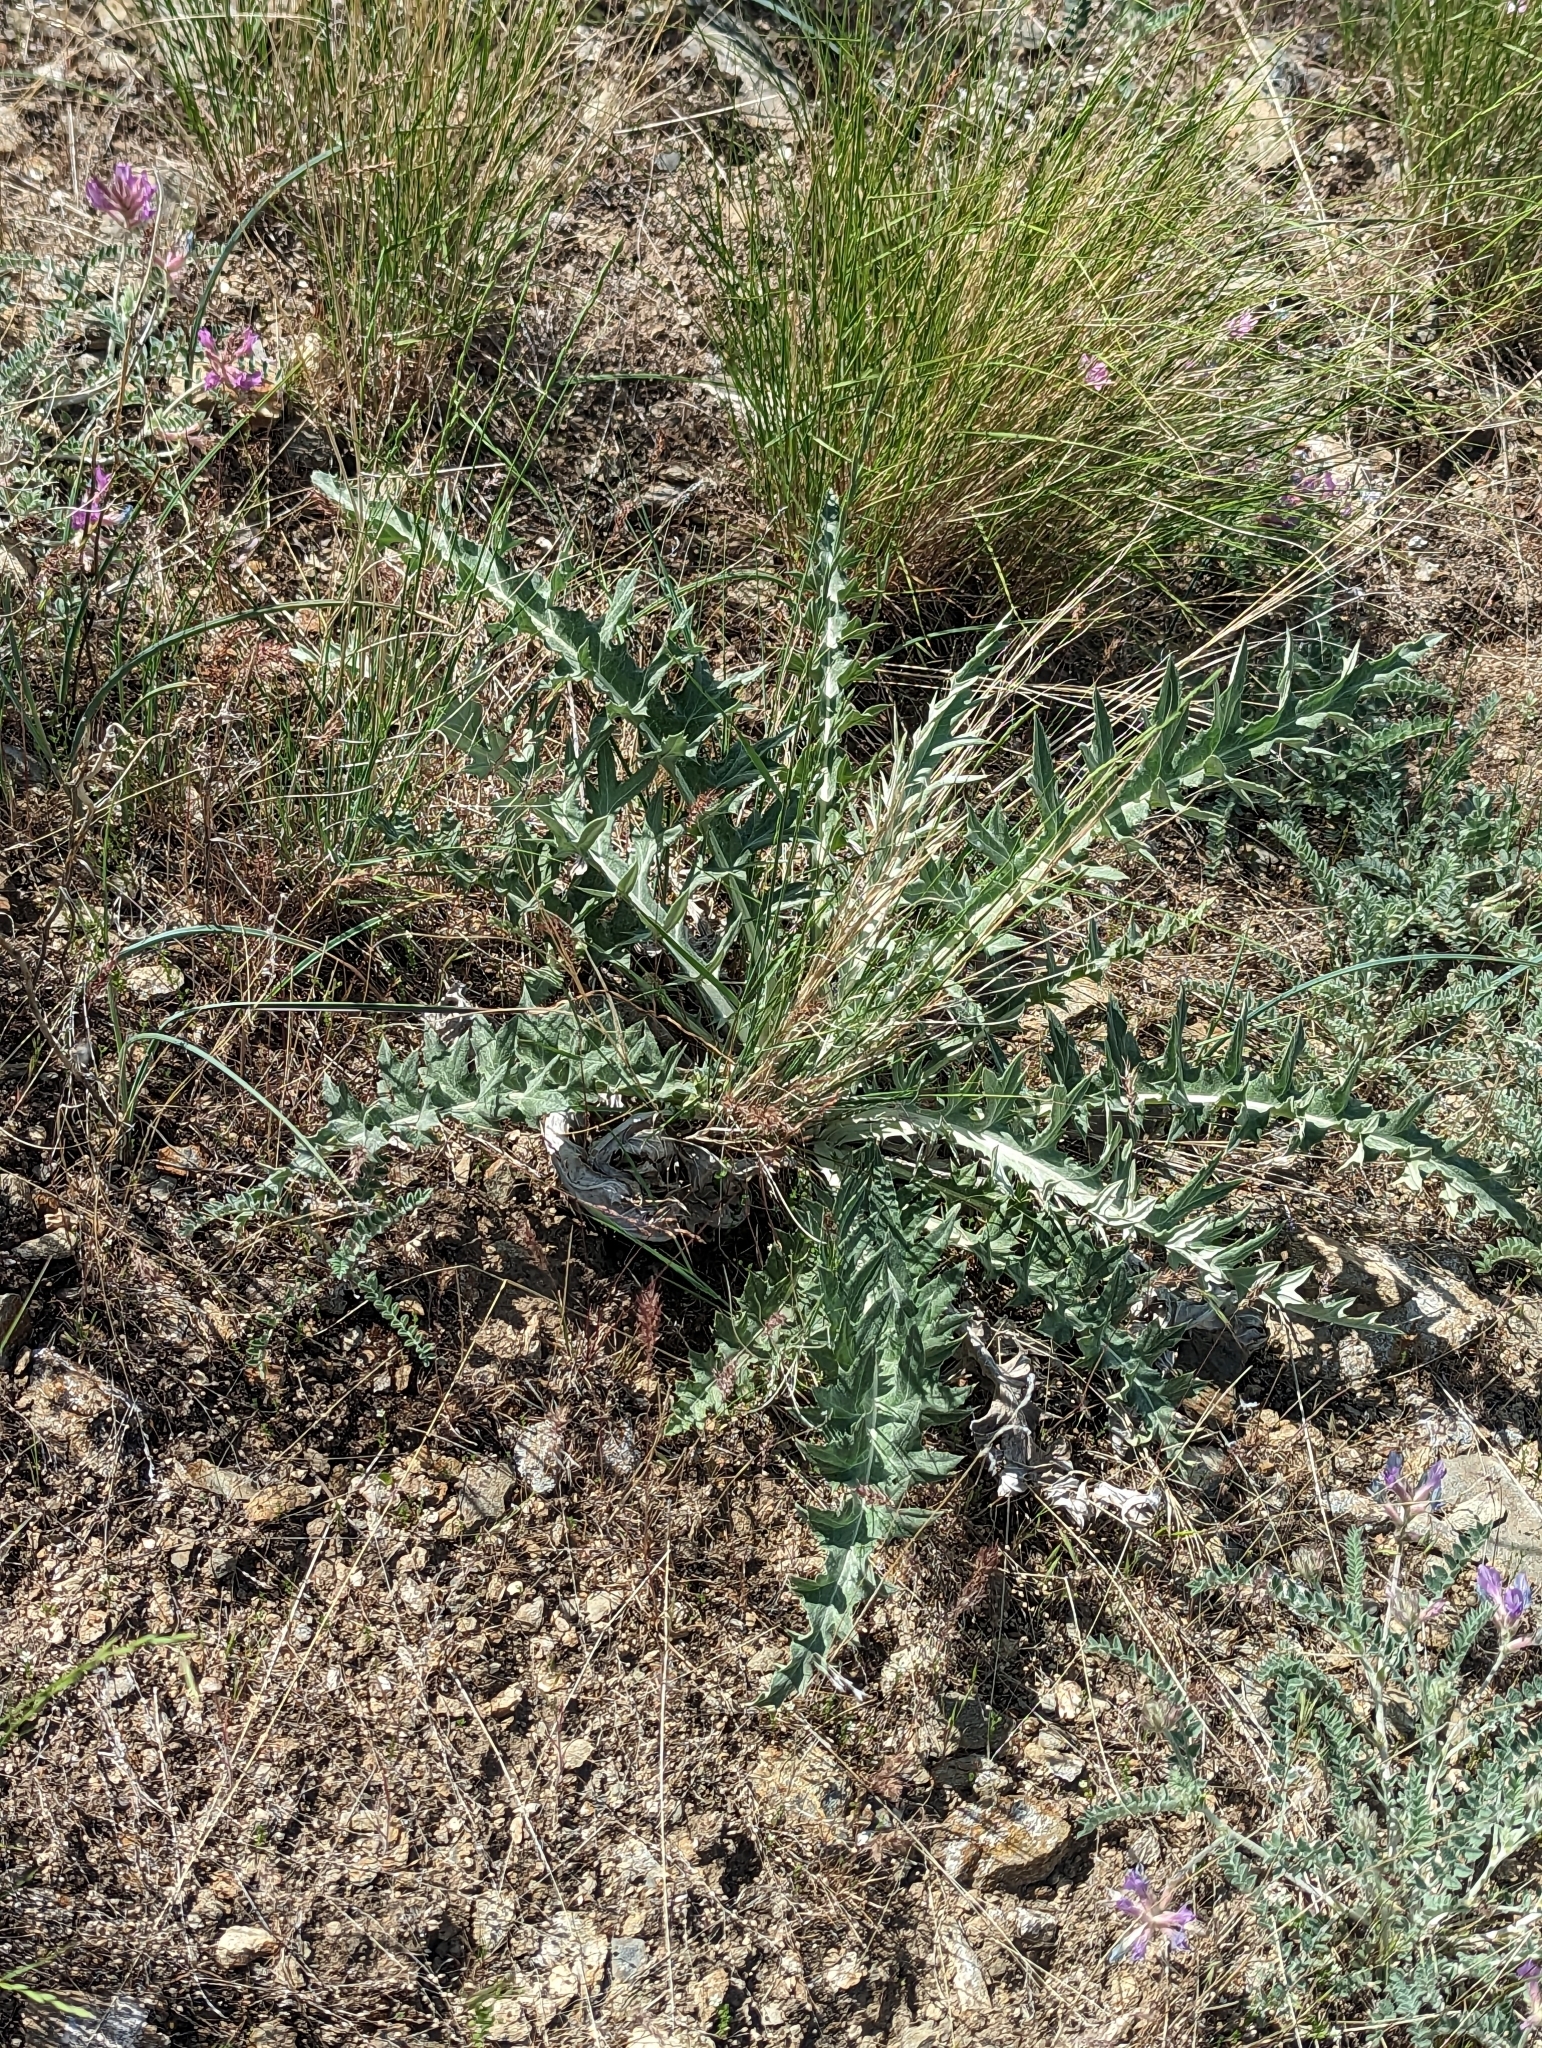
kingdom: Plantae
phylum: Tracheophyta
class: Magnoliopsida
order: Asterales
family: Asteraceae
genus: Cirsium
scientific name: Cirsium undulatum
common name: Pasture thistle
